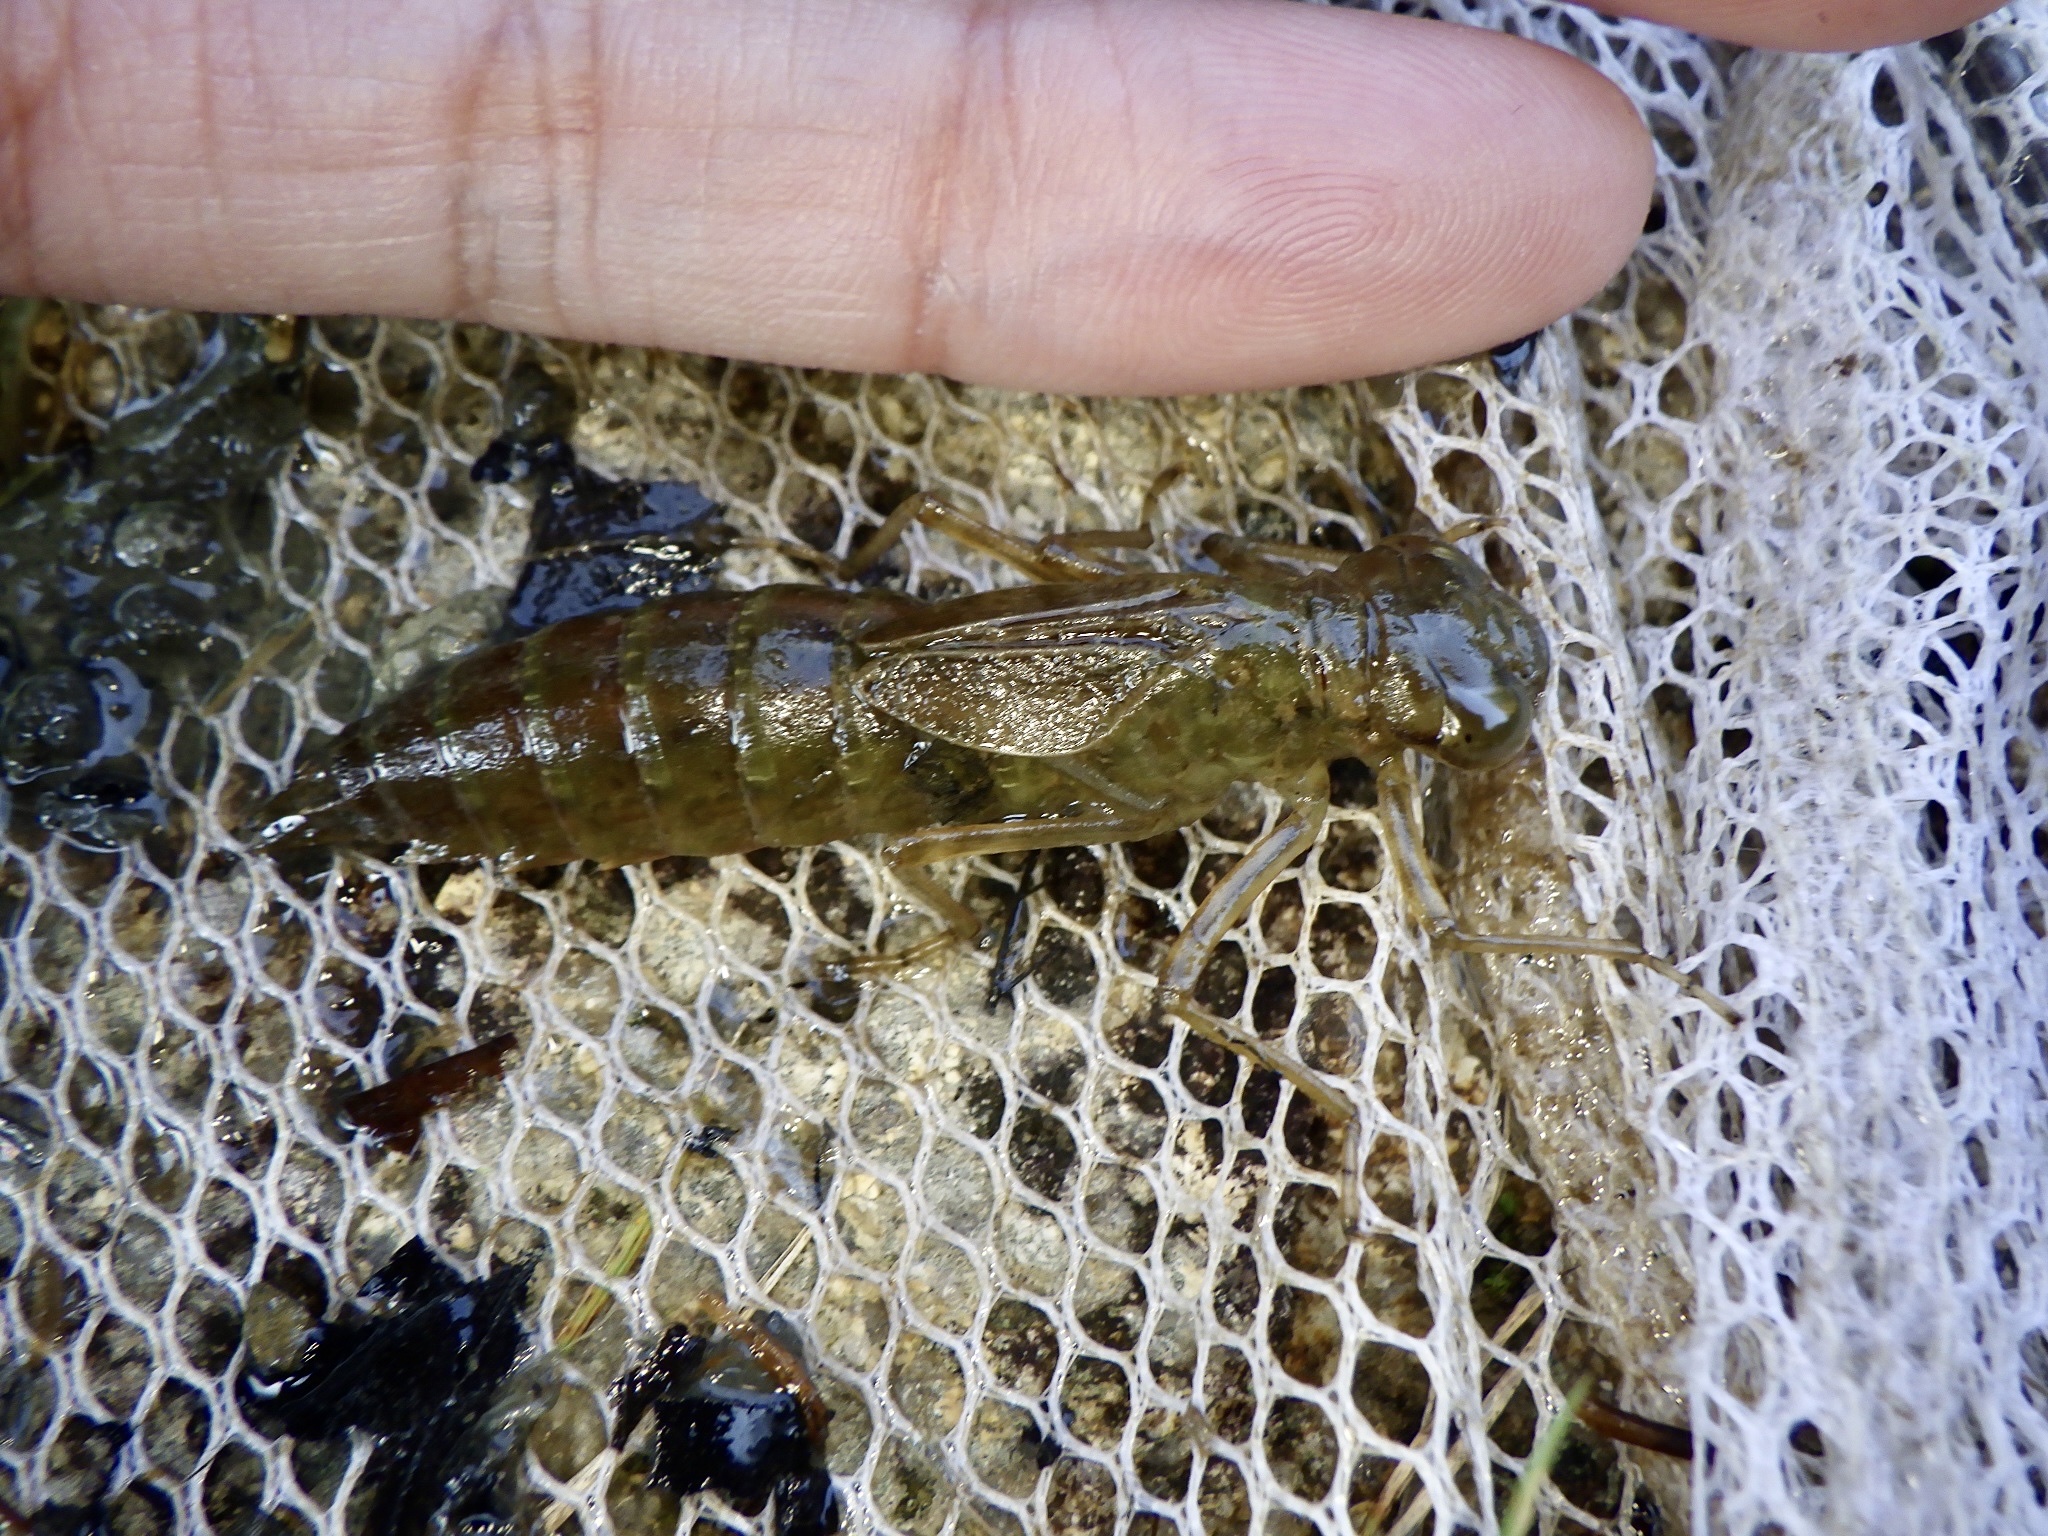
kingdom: Animalia
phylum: Arthropoda
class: Insecta
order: Odonata
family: Aeshnidae
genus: Anax
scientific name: Anax julius
